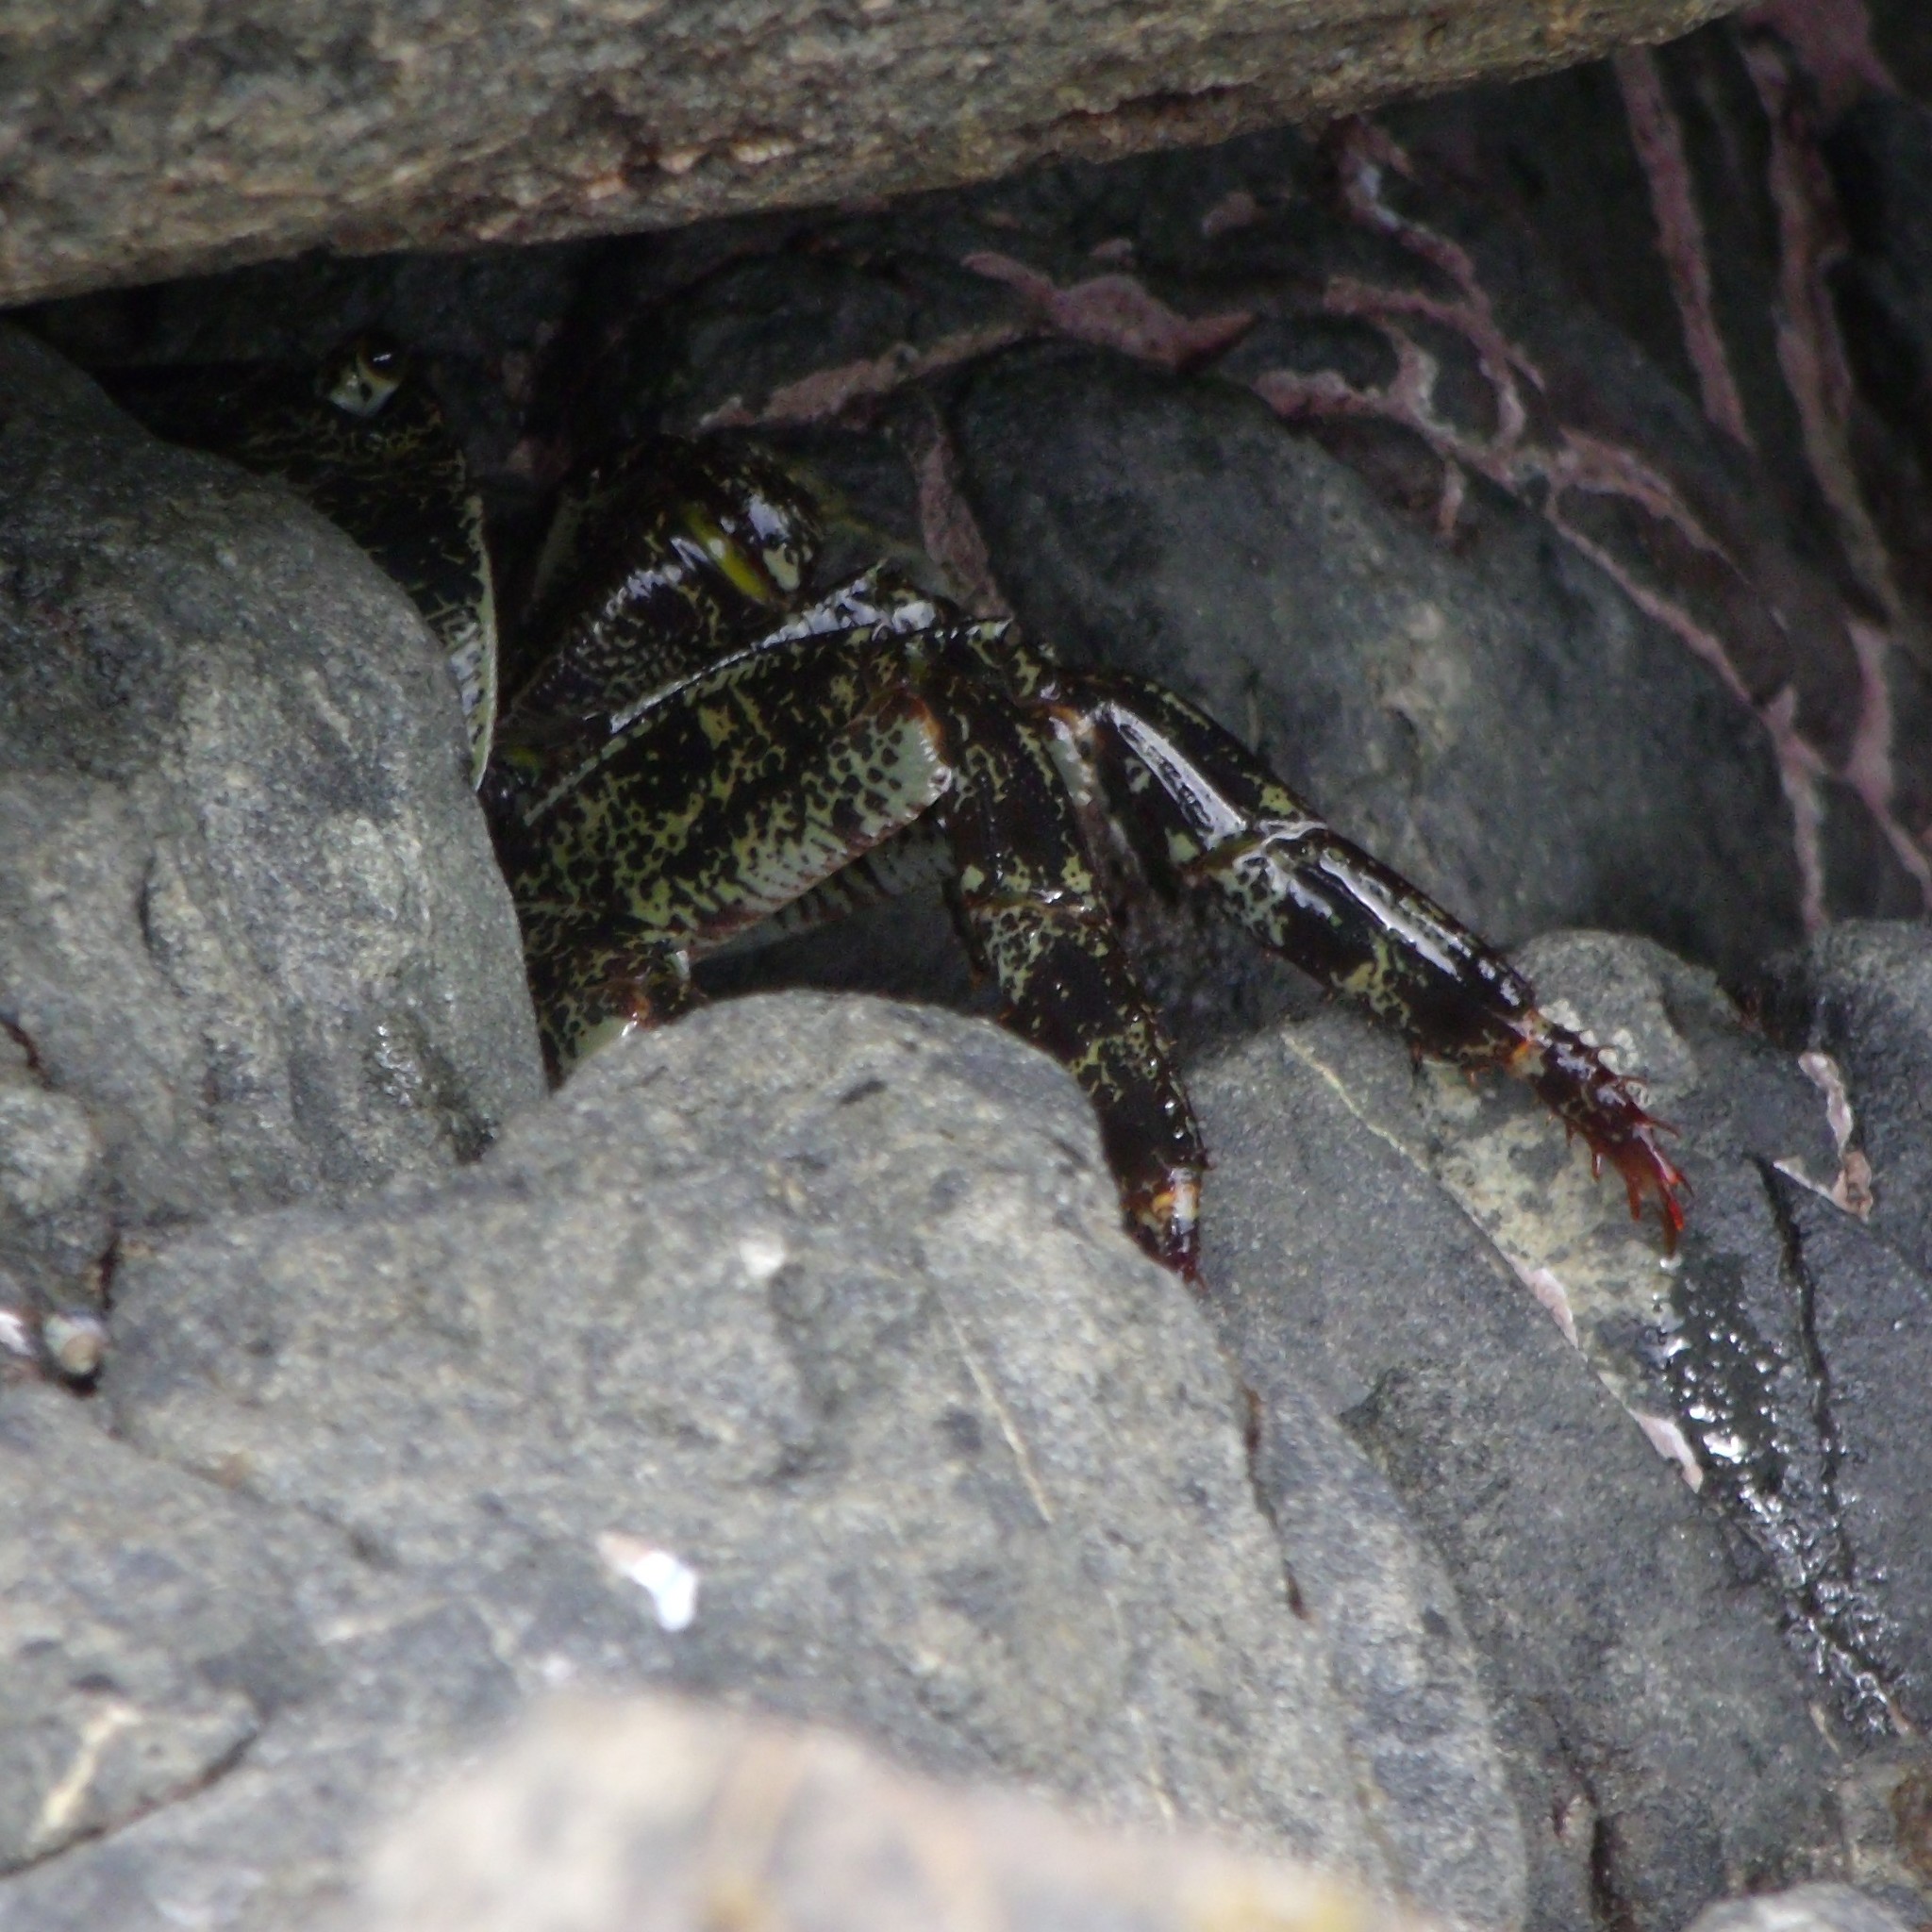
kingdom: Animalia
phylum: Arthropoda
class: Malacostraca
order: Decapoda
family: Grapsidae
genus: Leptograpsus
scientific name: Leptograpsus variegatus
